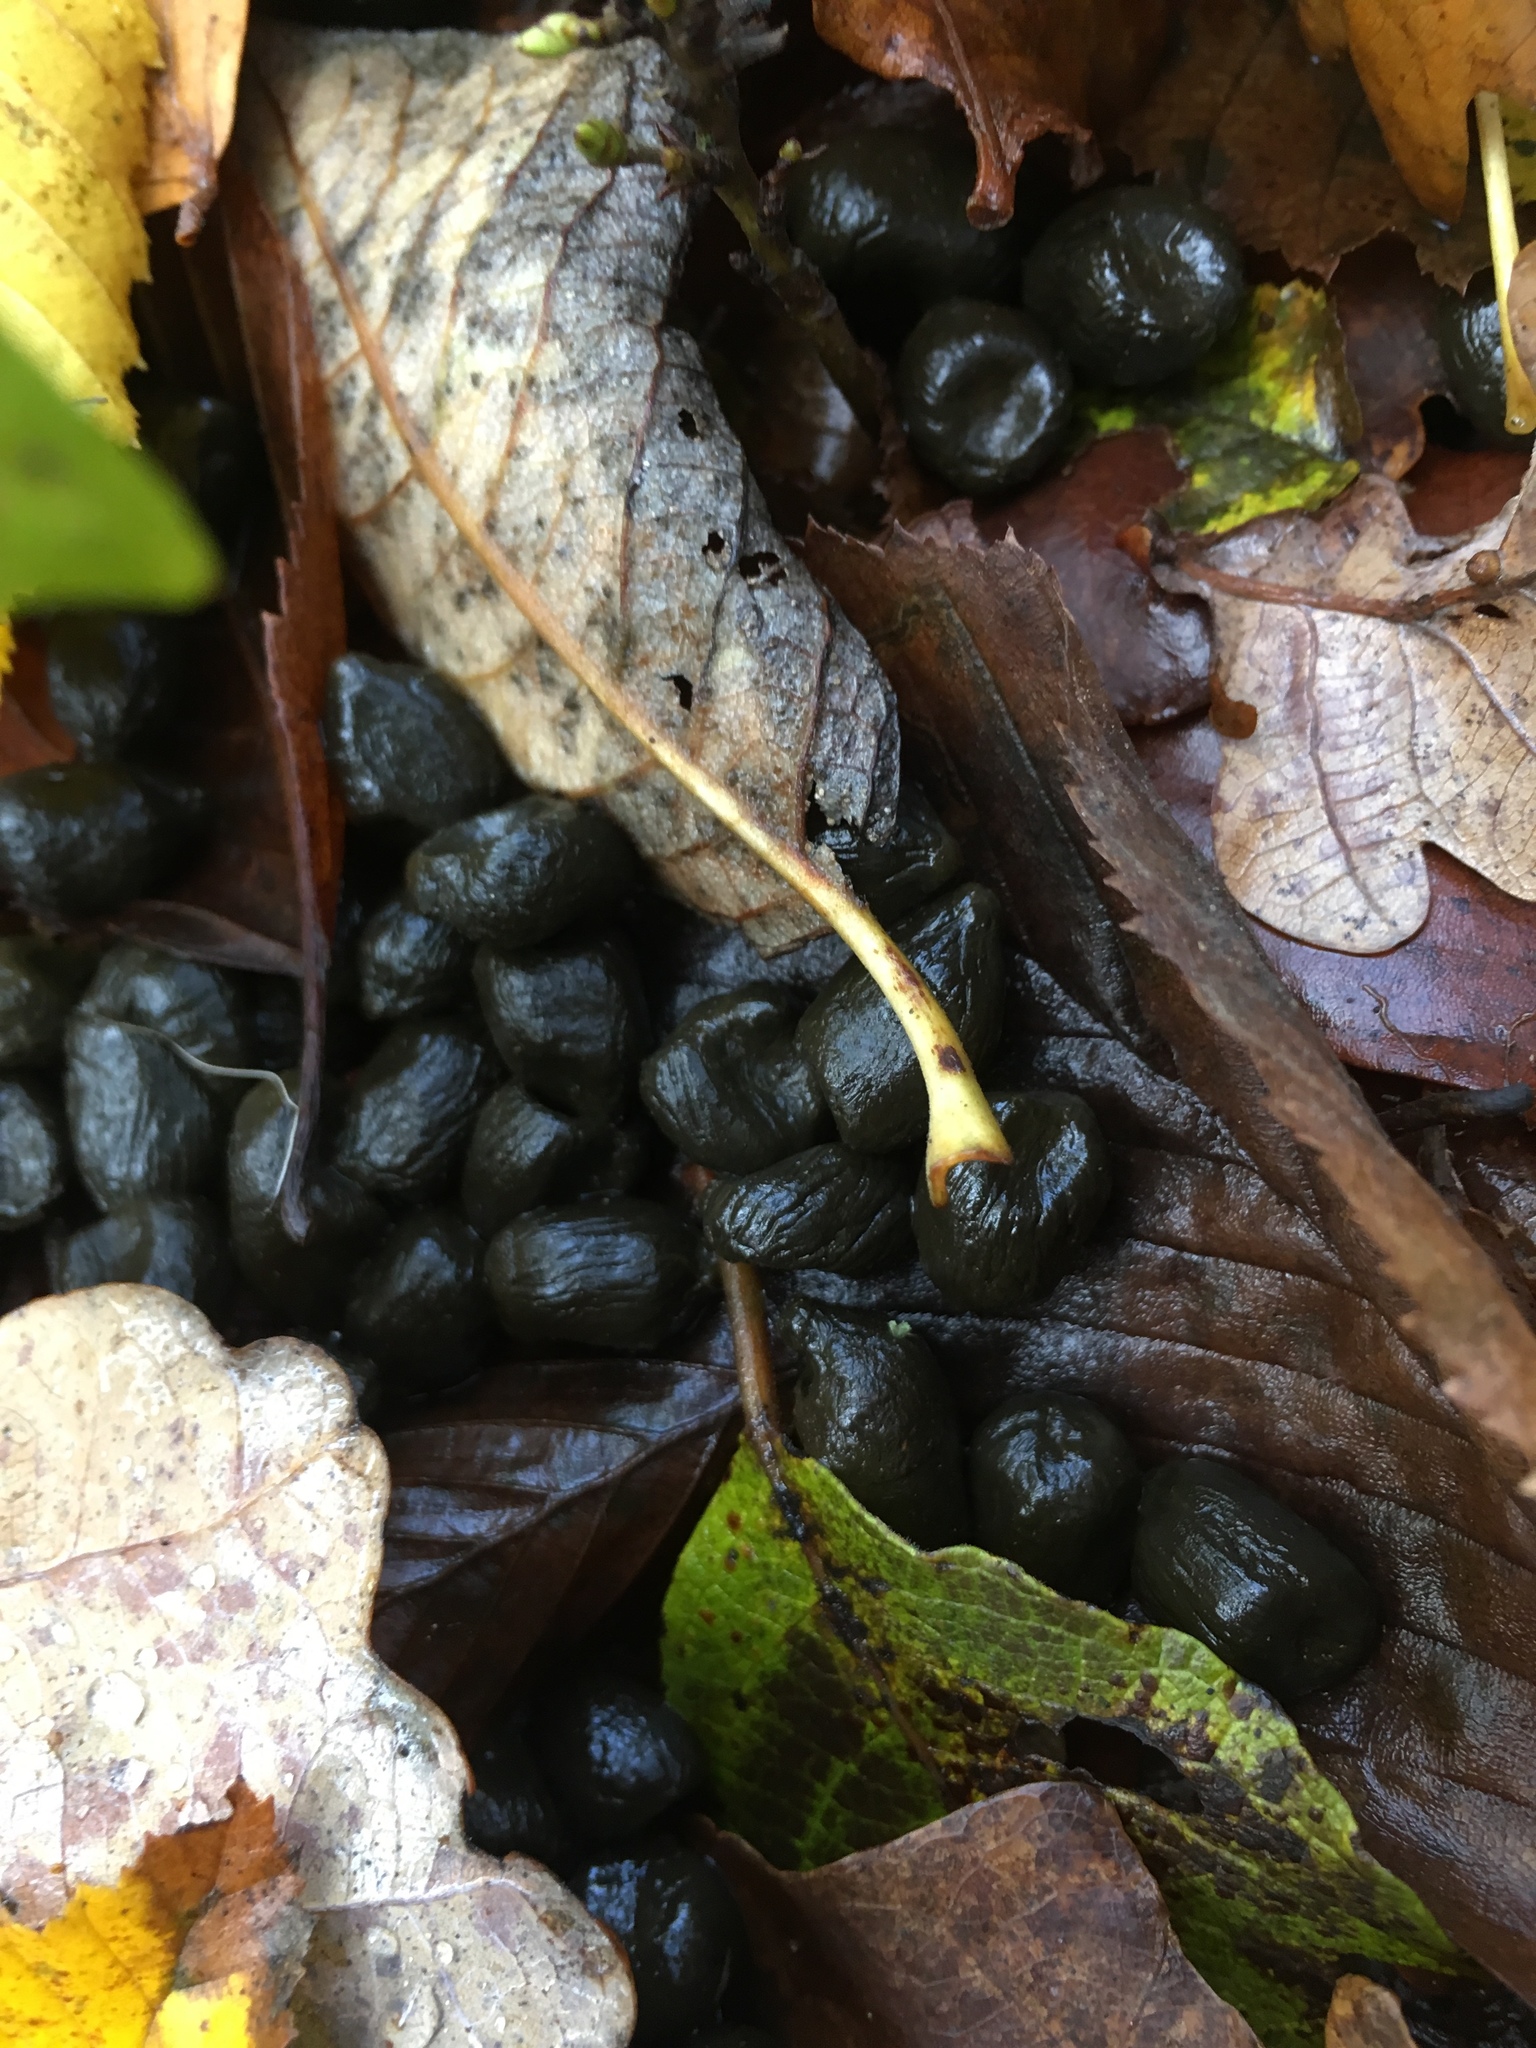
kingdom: Animalia
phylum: Chordata
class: Mammalia
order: Artiodactyla
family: Cervidae
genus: Dama
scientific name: Dama dama
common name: Fallow deer
